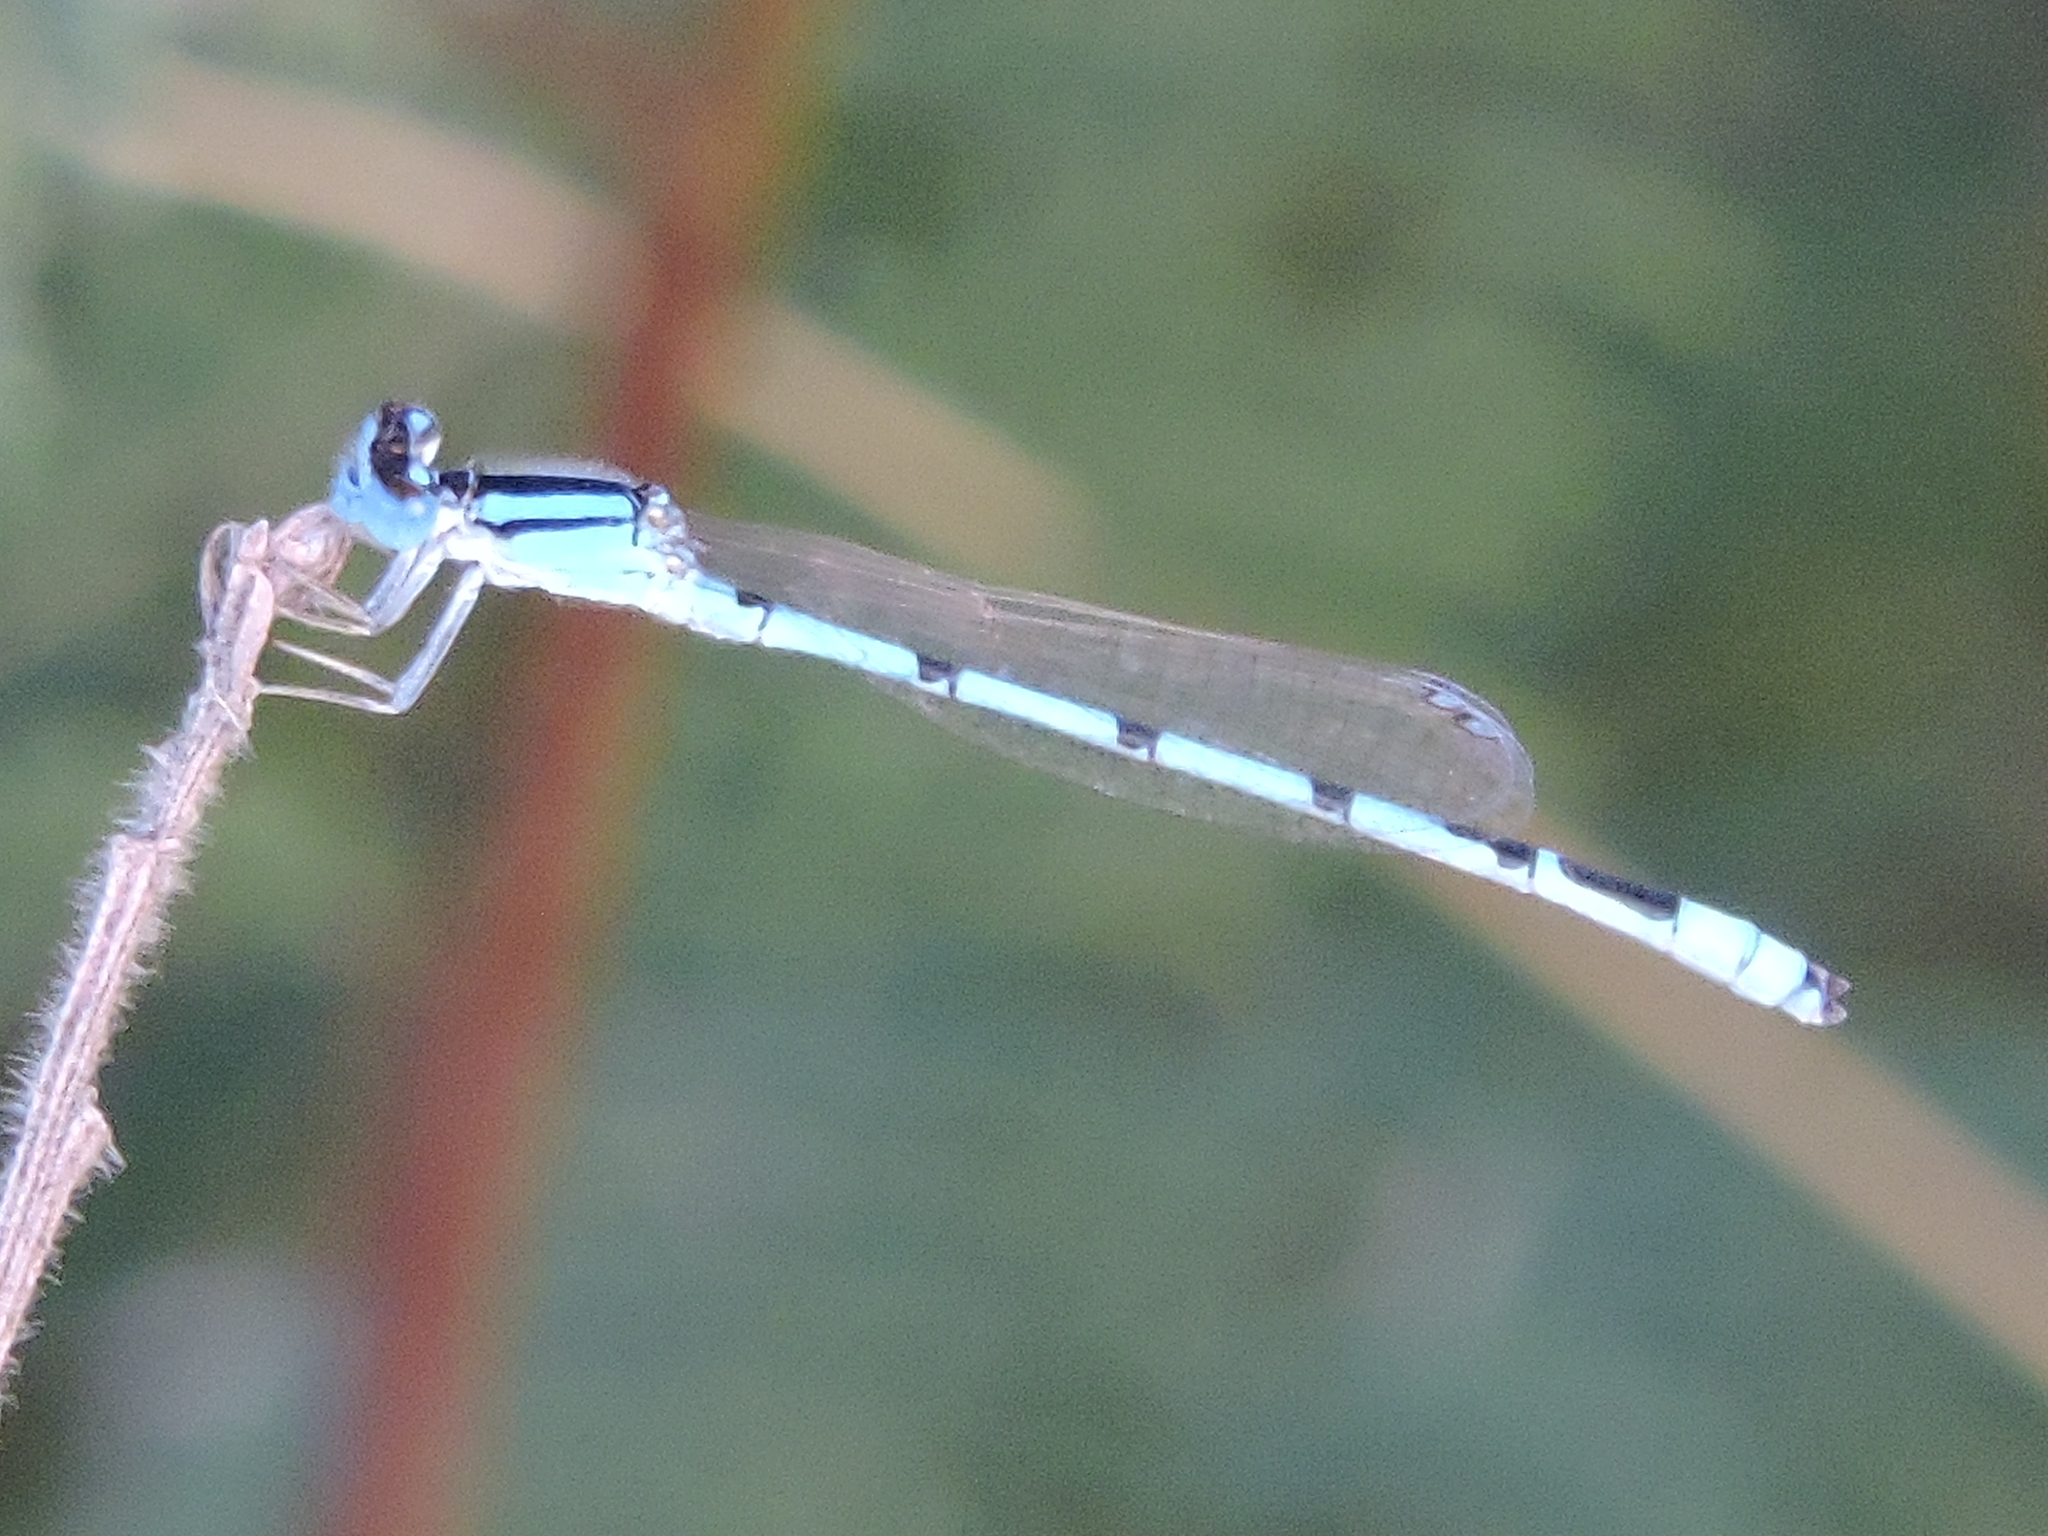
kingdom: Animalia
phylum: Arthropoda
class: Insecta
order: Odonata
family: Coenagrionidae
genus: Enallagma
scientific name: Enallagma civile
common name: Damselfly
